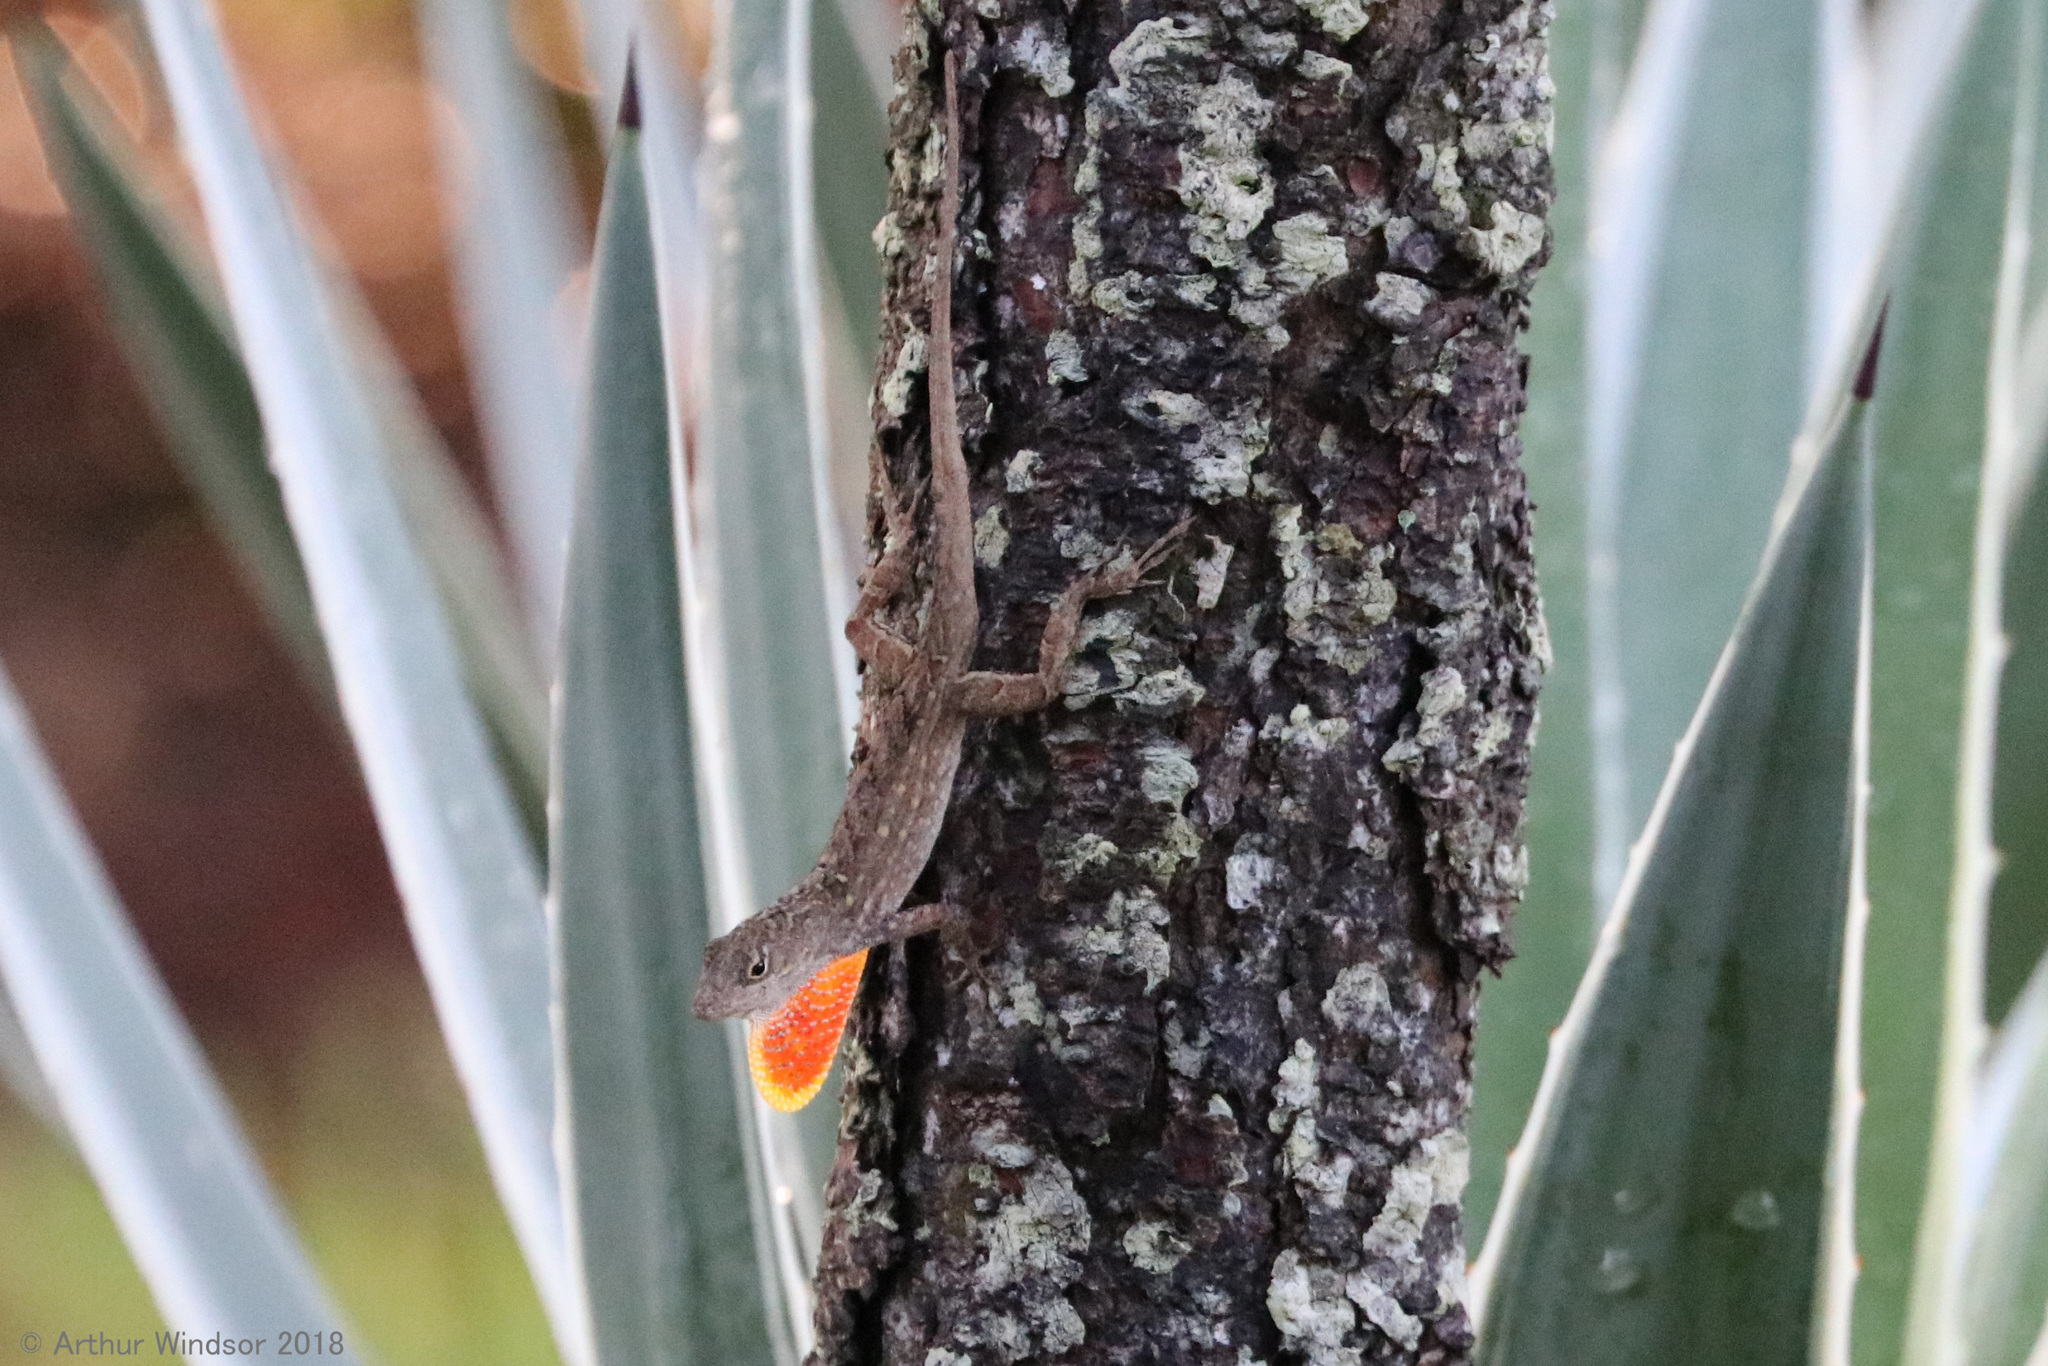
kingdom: Animalia
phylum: Chordata
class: Squamata
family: Dactyloidae
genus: Anolis
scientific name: Anolis sagrei
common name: Brown anole
